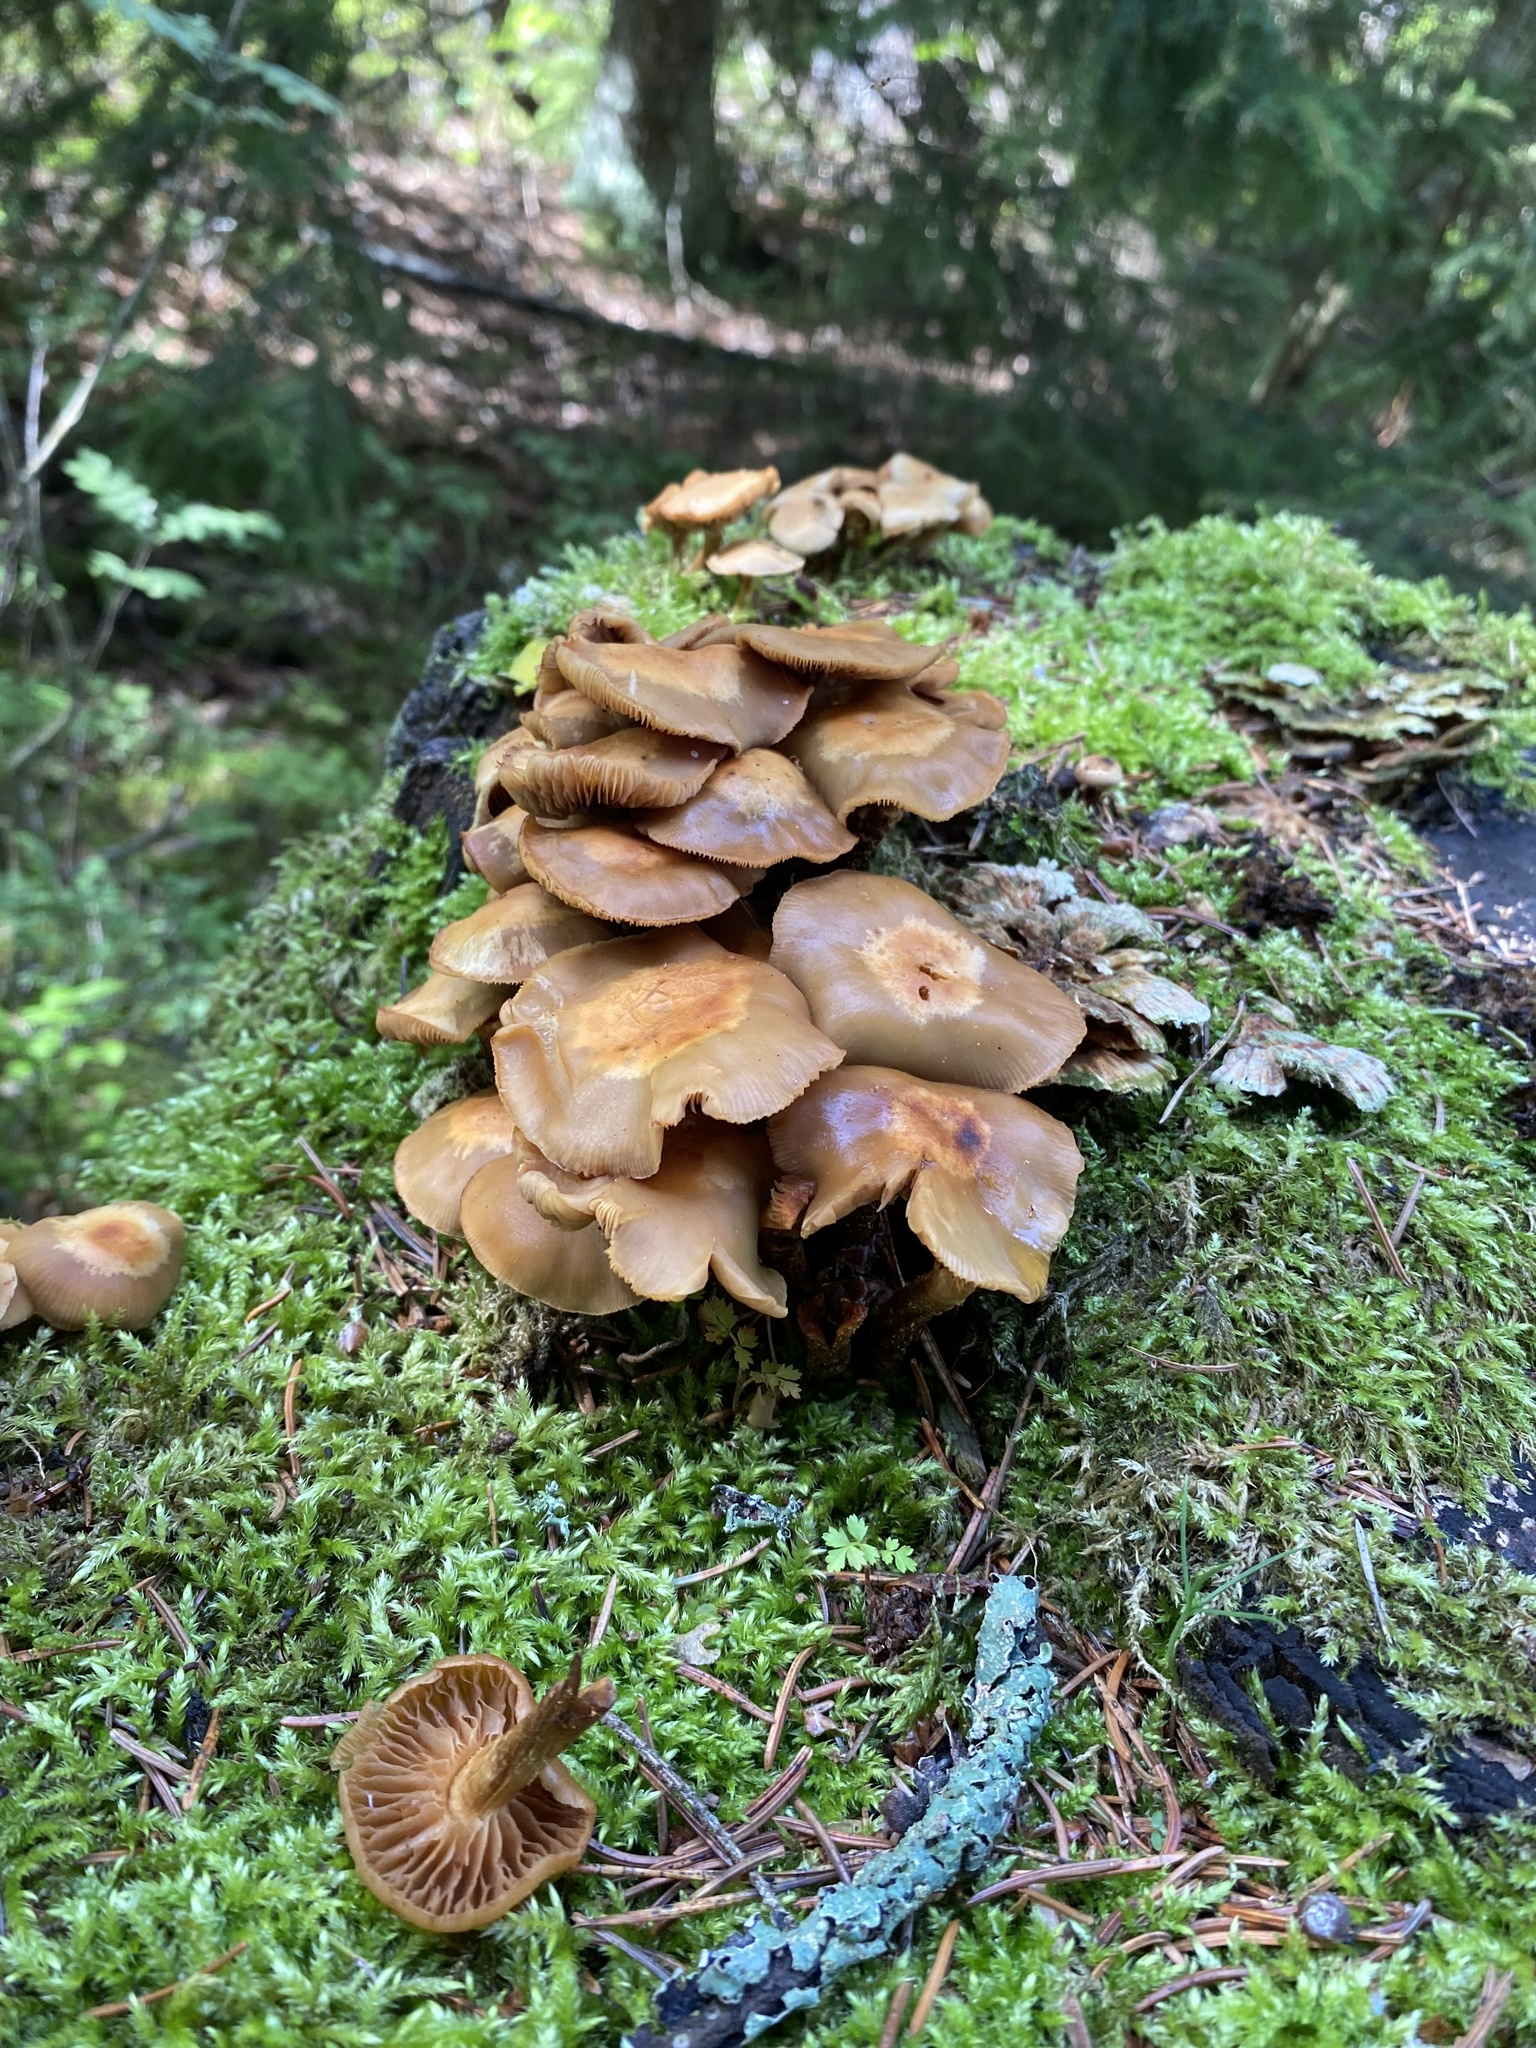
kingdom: Fungi
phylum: Basidiomycota
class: Agaricomycetes
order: Agaricales
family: Strophariaceae
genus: Kuehneromyces
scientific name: Kuehneromyces mutabilis
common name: Sheathed woodtuft
